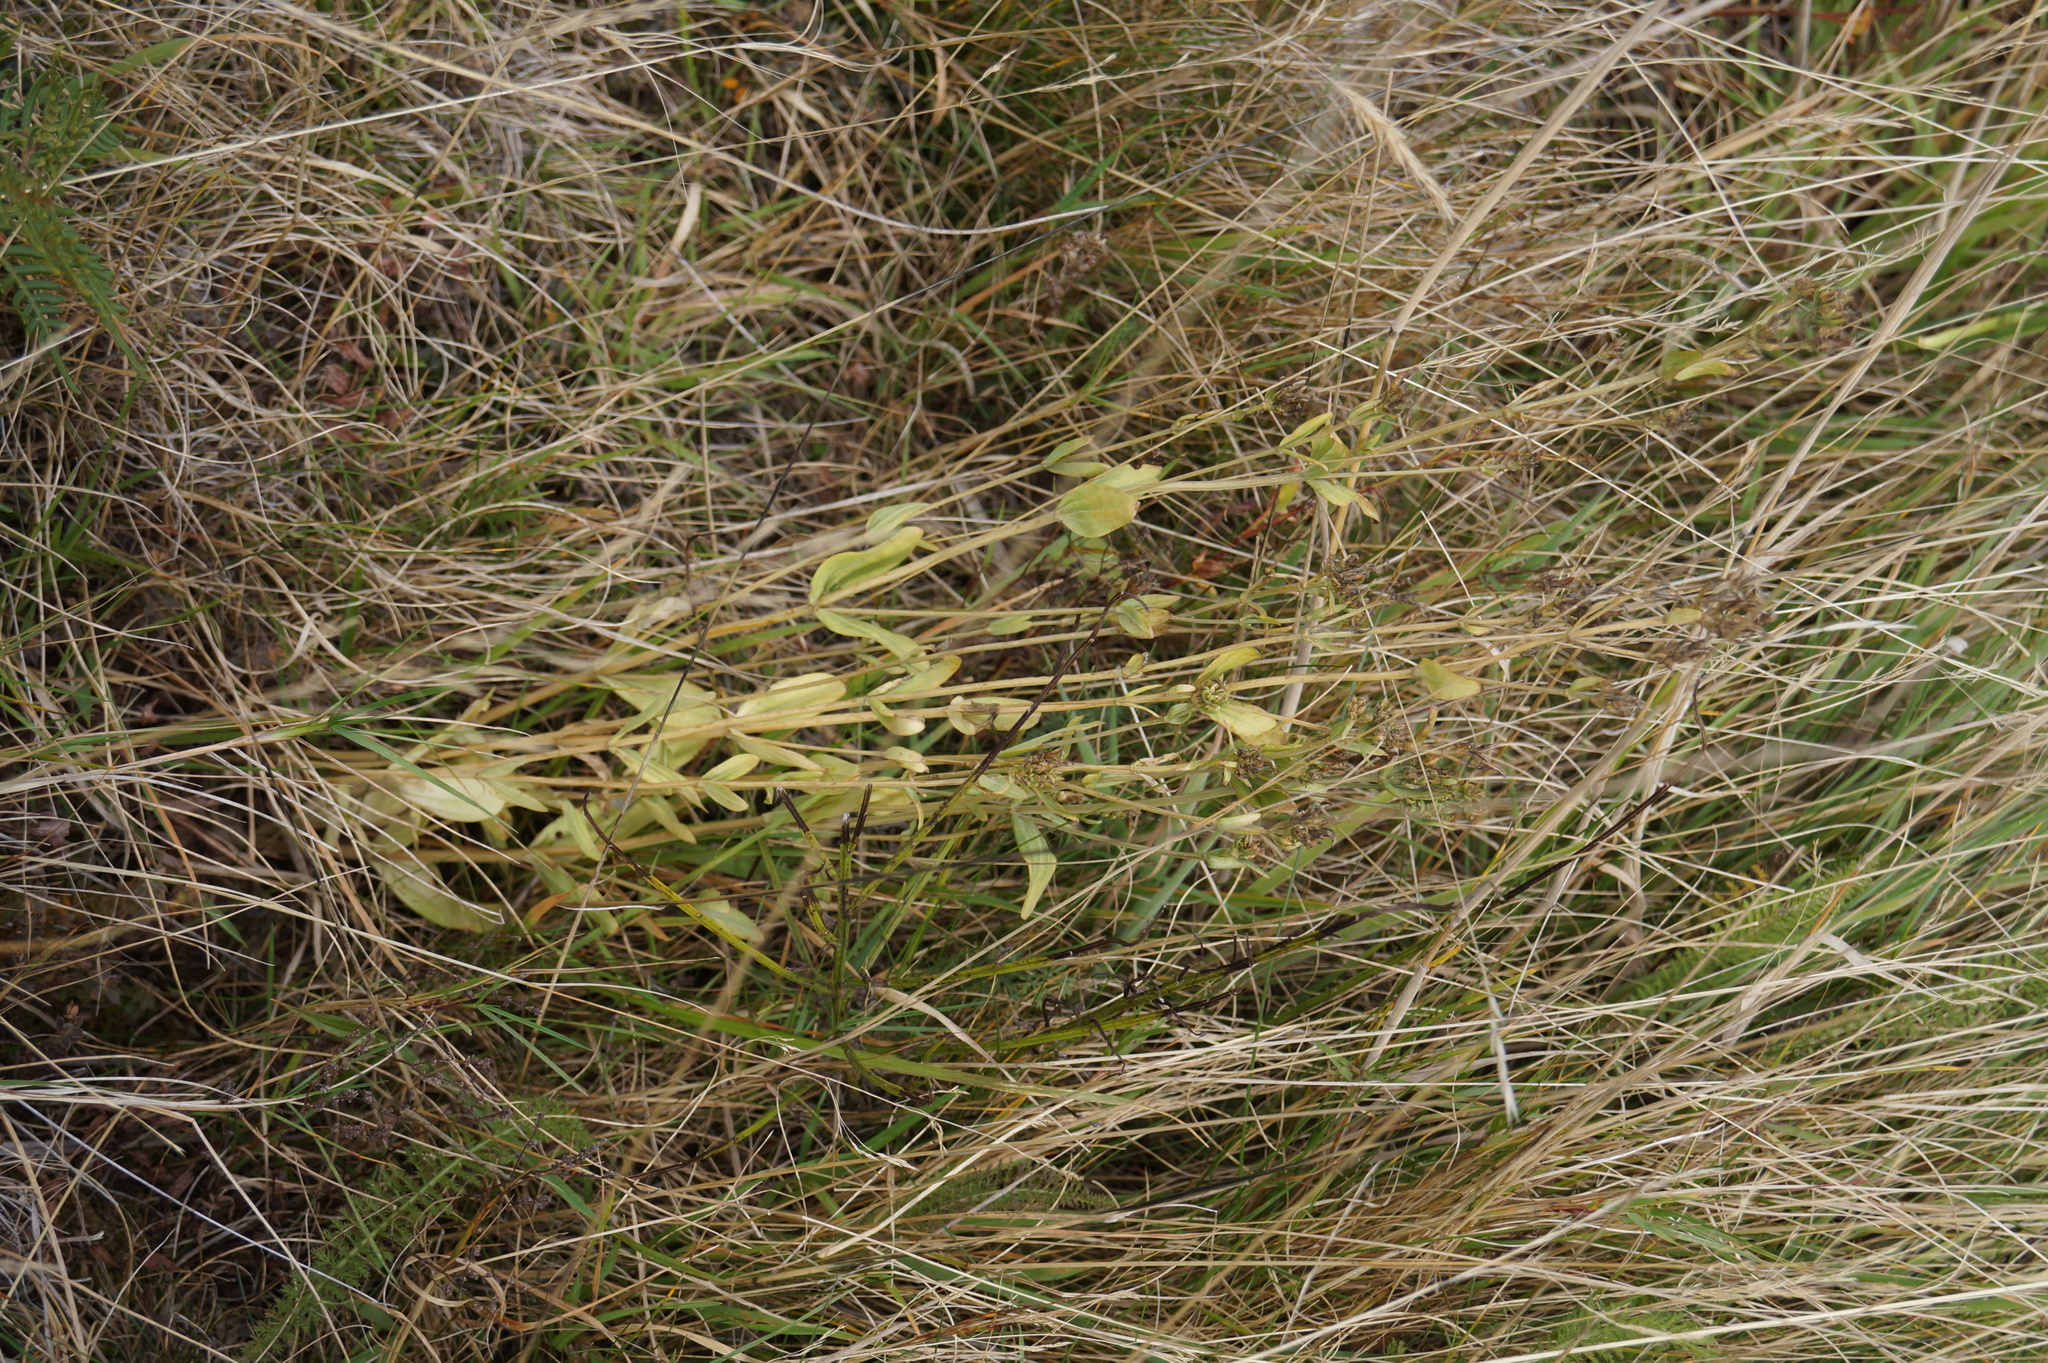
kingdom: Plantae
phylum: Tracheophyta
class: Magnoliopsida
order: Gentianales
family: Gentianaceae
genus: Centaurium
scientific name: Centaurium erythraea
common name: Common centaury
